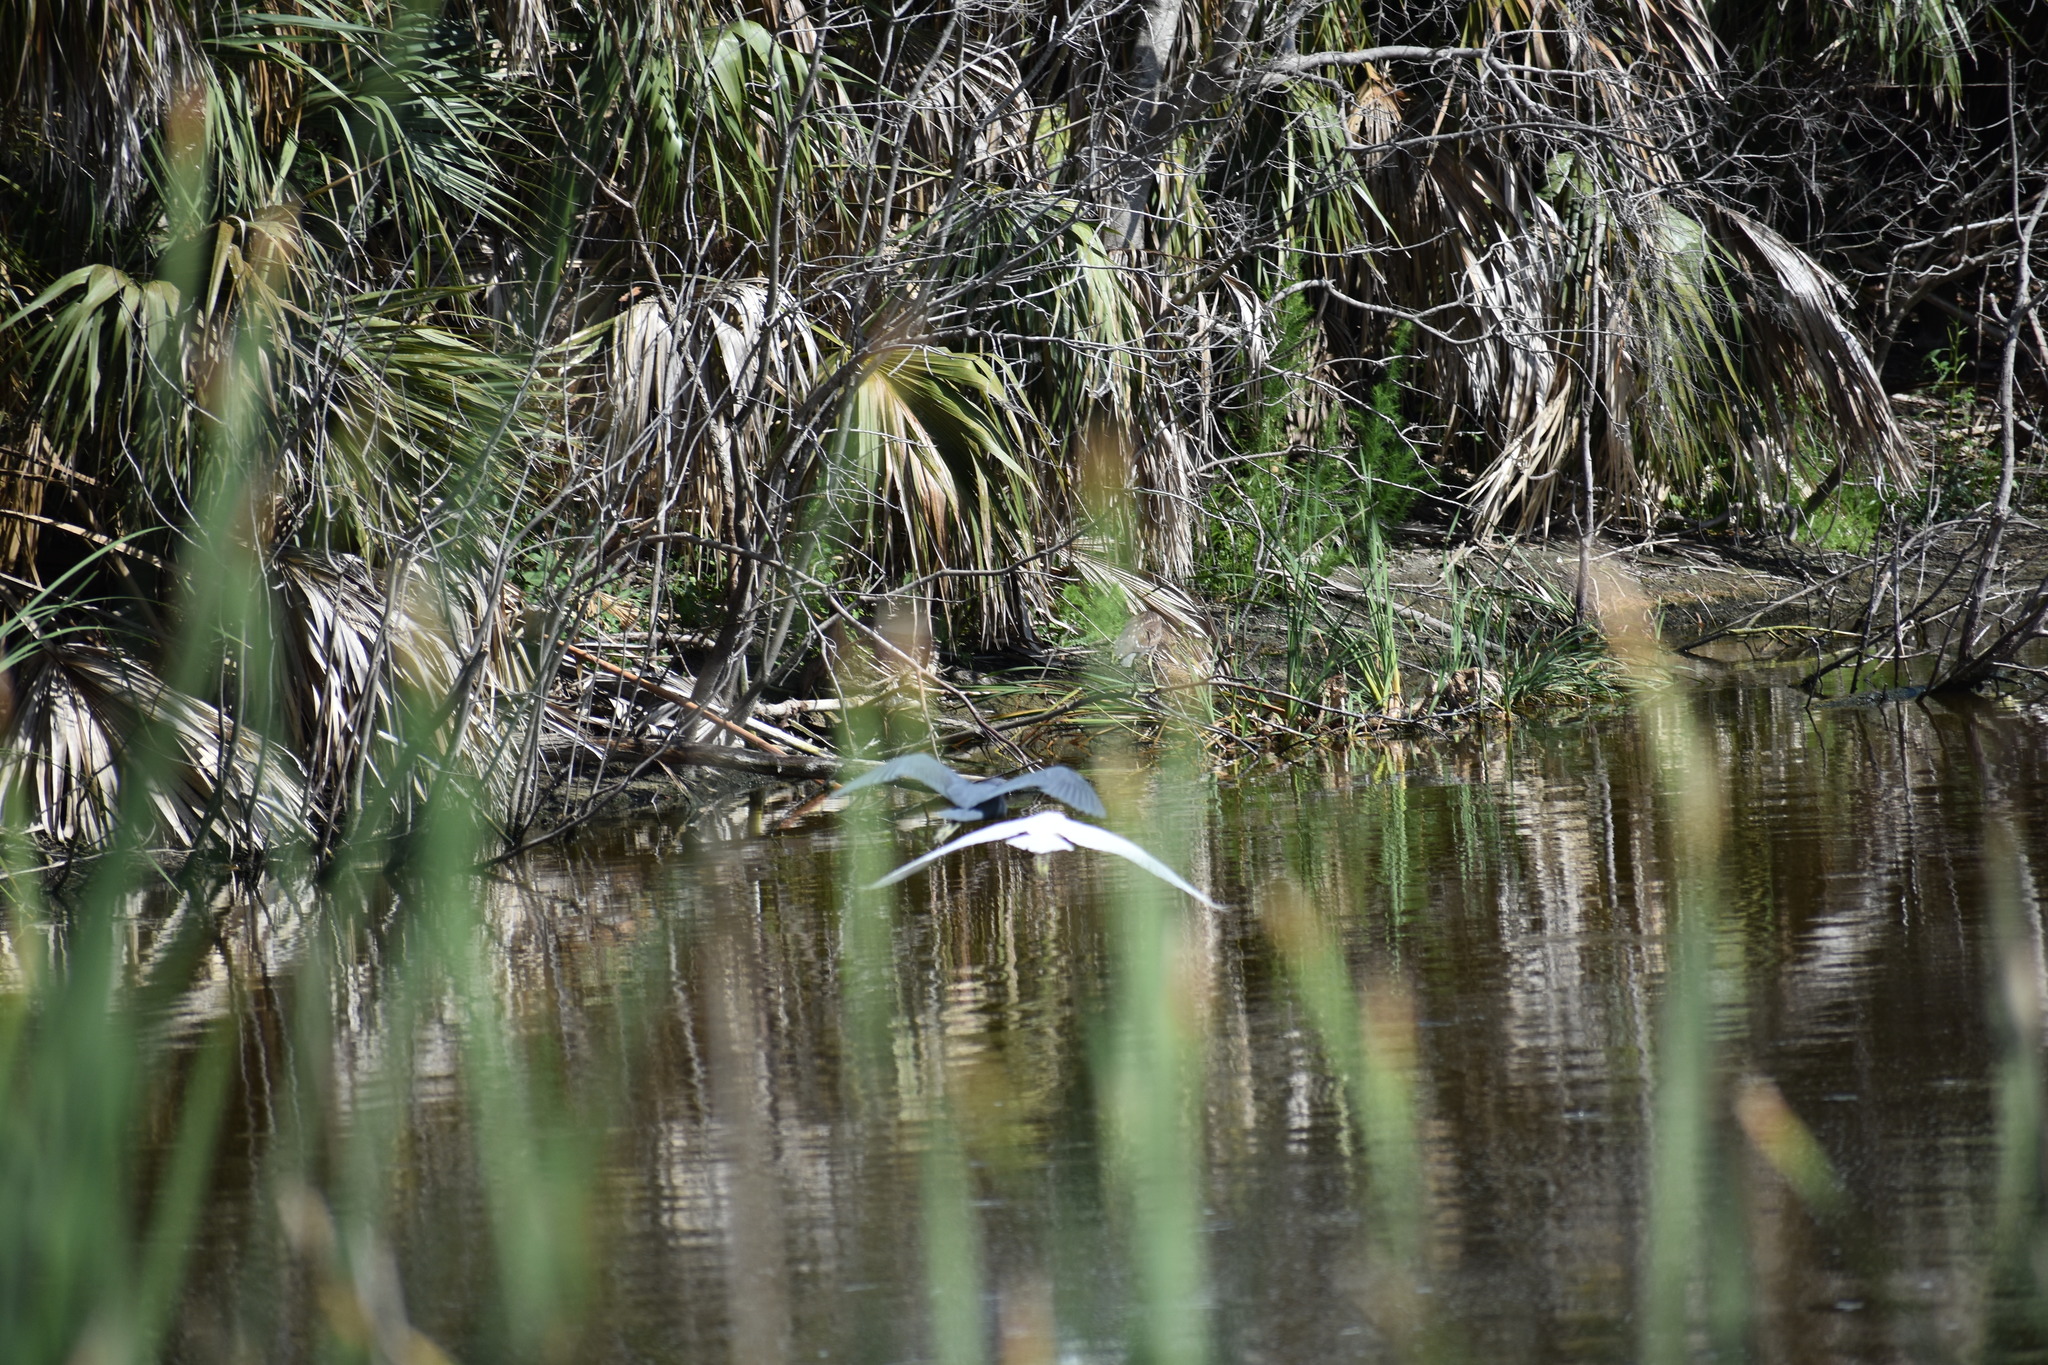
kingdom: Animalia
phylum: Chordata
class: Aves
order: Pelecaniformes
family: Ardeidae
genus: Egretta
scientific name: Egretta caerulea
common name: Little blue heron
